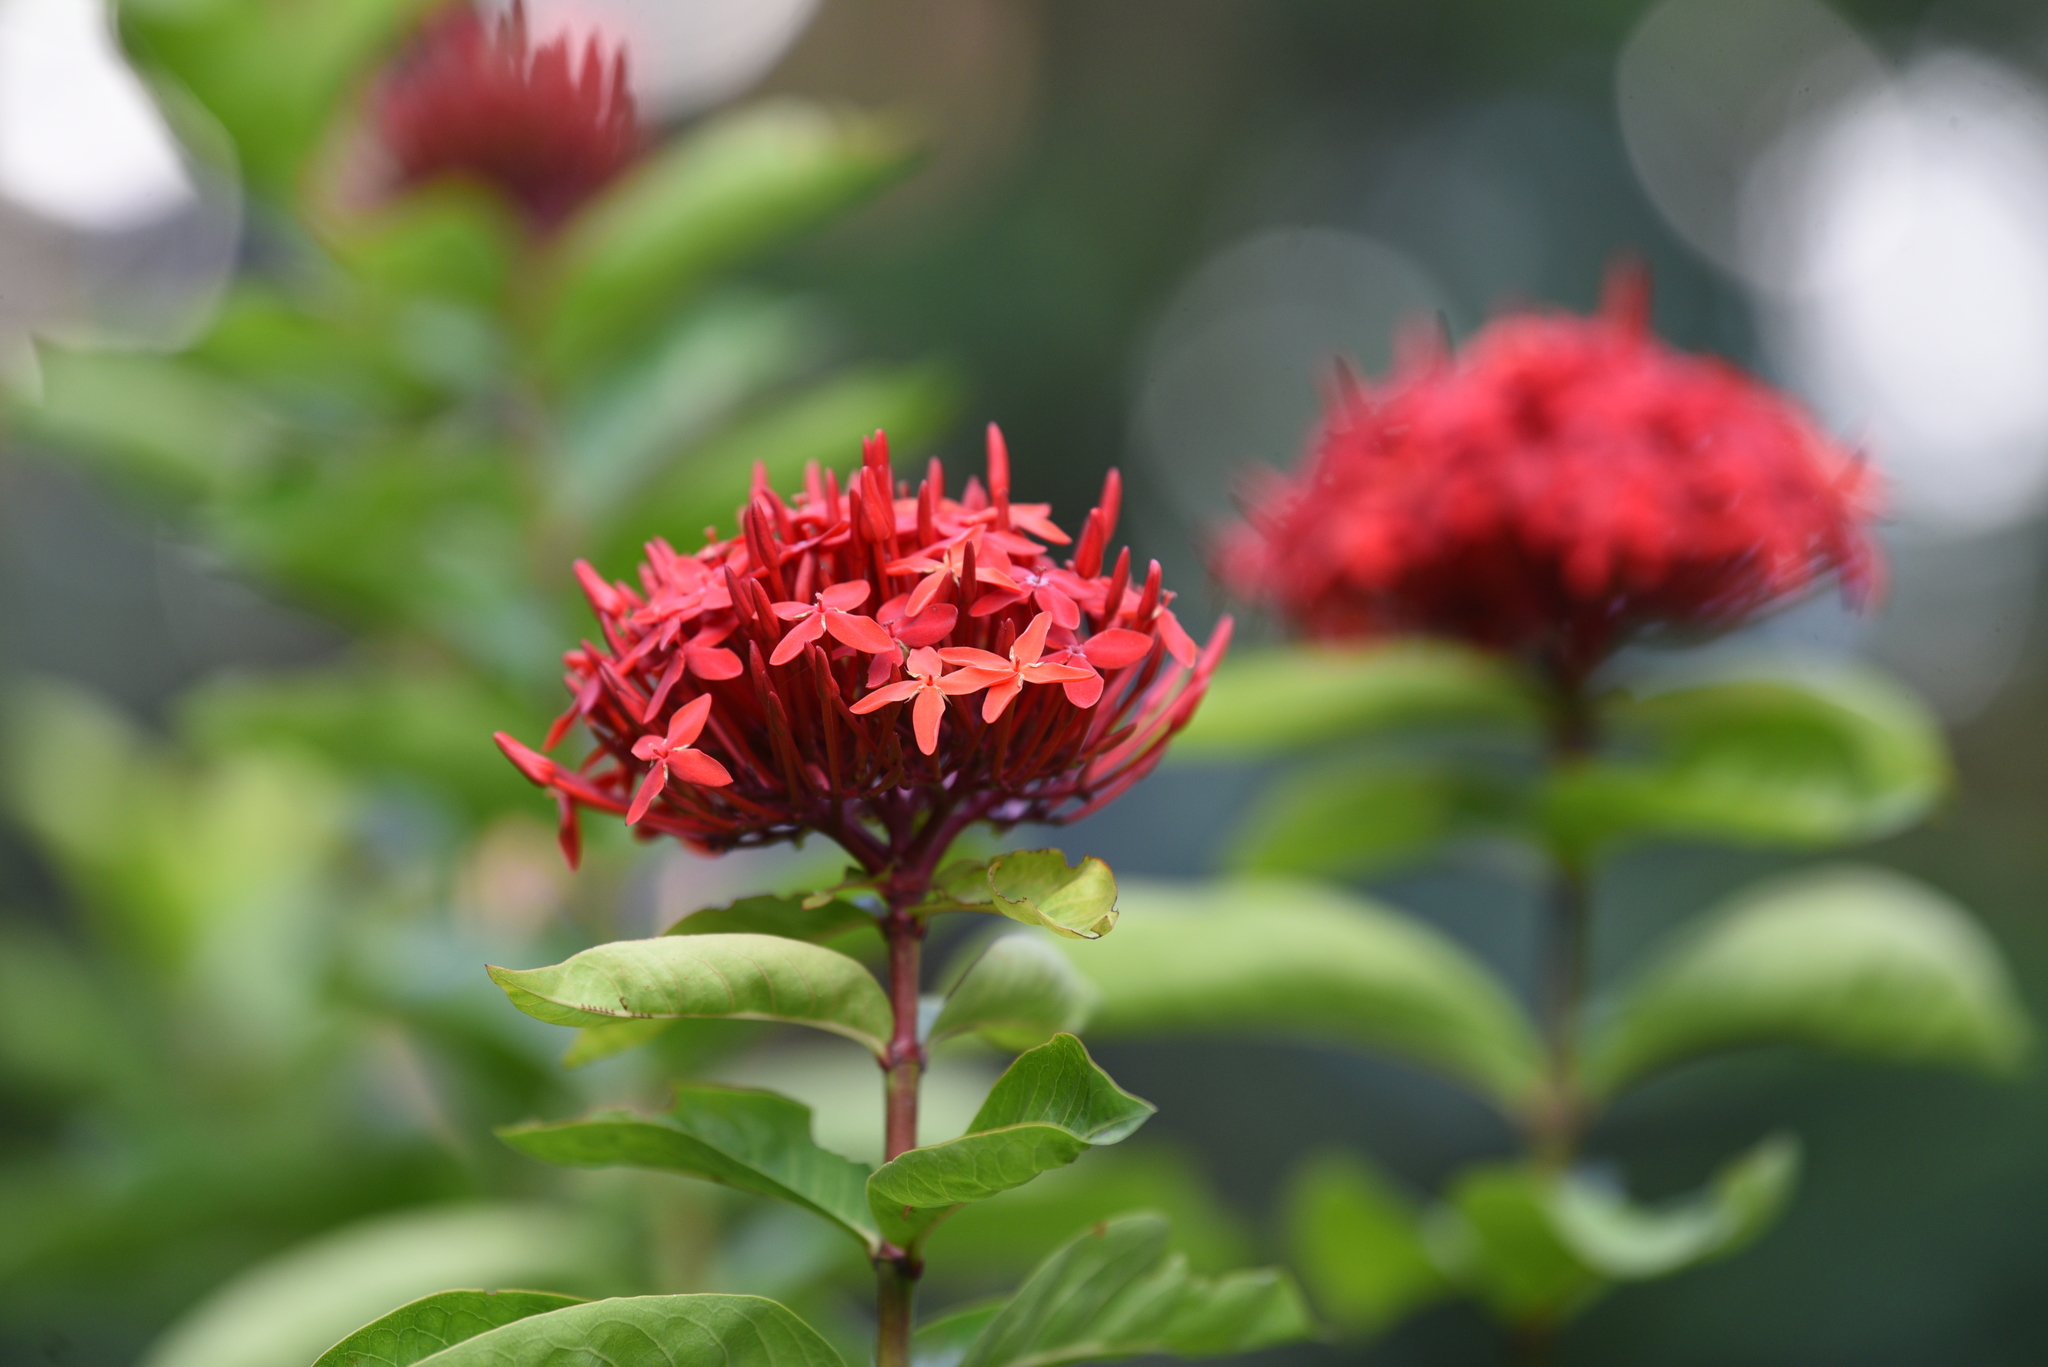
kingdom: Plantae
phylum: Tracheophyta
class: Magnoliopsida
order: Gentianales
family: Rubiaceae
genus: Ixora
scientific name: Ixora coccinea
